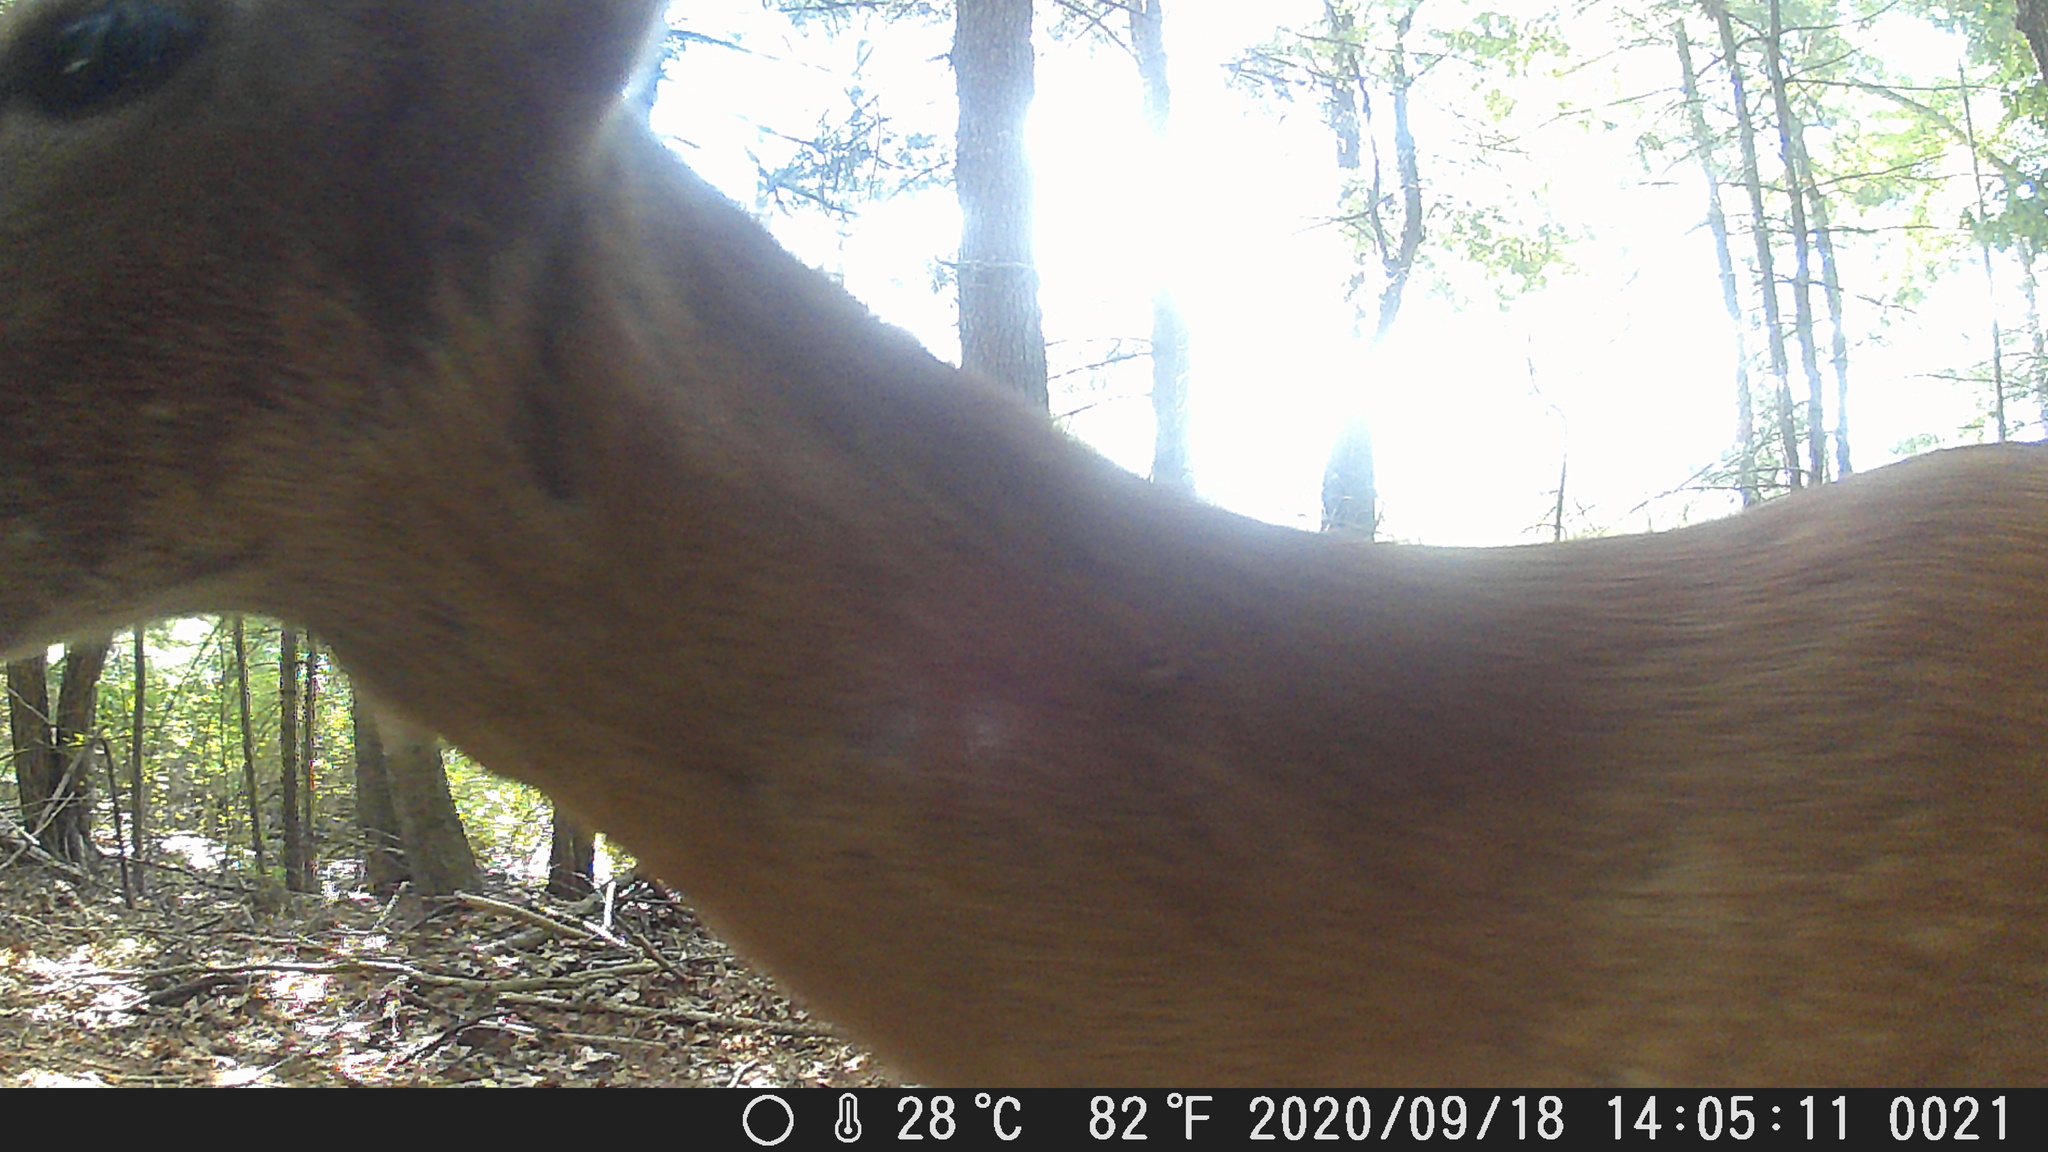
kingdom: Animalia
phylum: Chordata
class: Mammalia
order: Artiodactyla
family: Cervidae
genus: Odocoileus
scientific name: Odocoileus virginianus
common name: White-tailed deer
